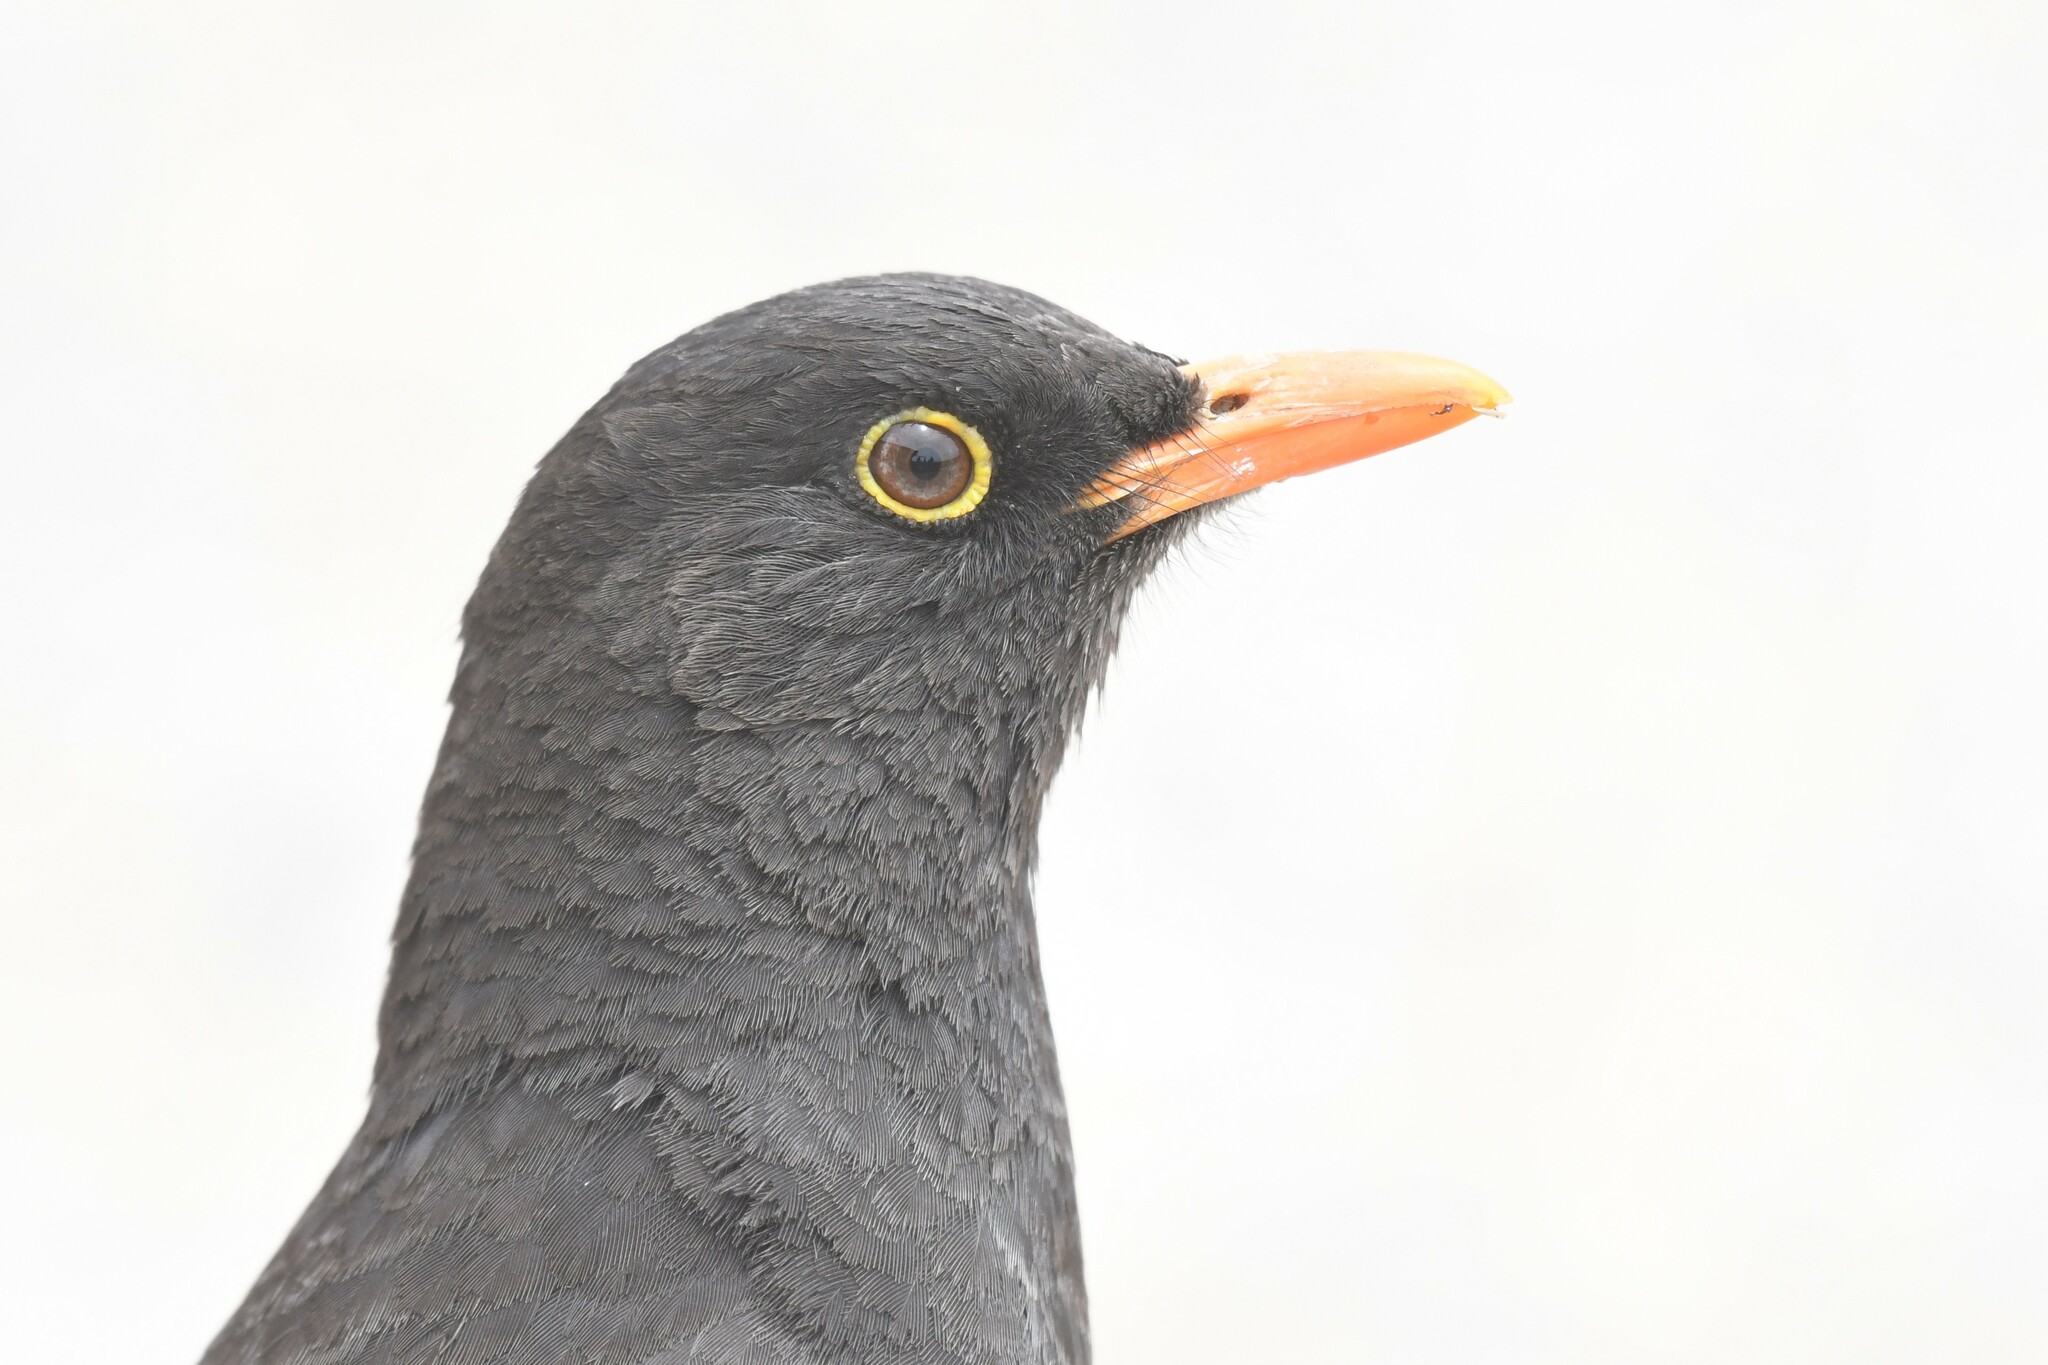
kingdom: Animalia
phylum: Chordata
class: Aves
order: Passeriformes
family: Turdidae
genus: Turdus
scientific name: Turdus chiguanco
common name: Chiguanco thrush
